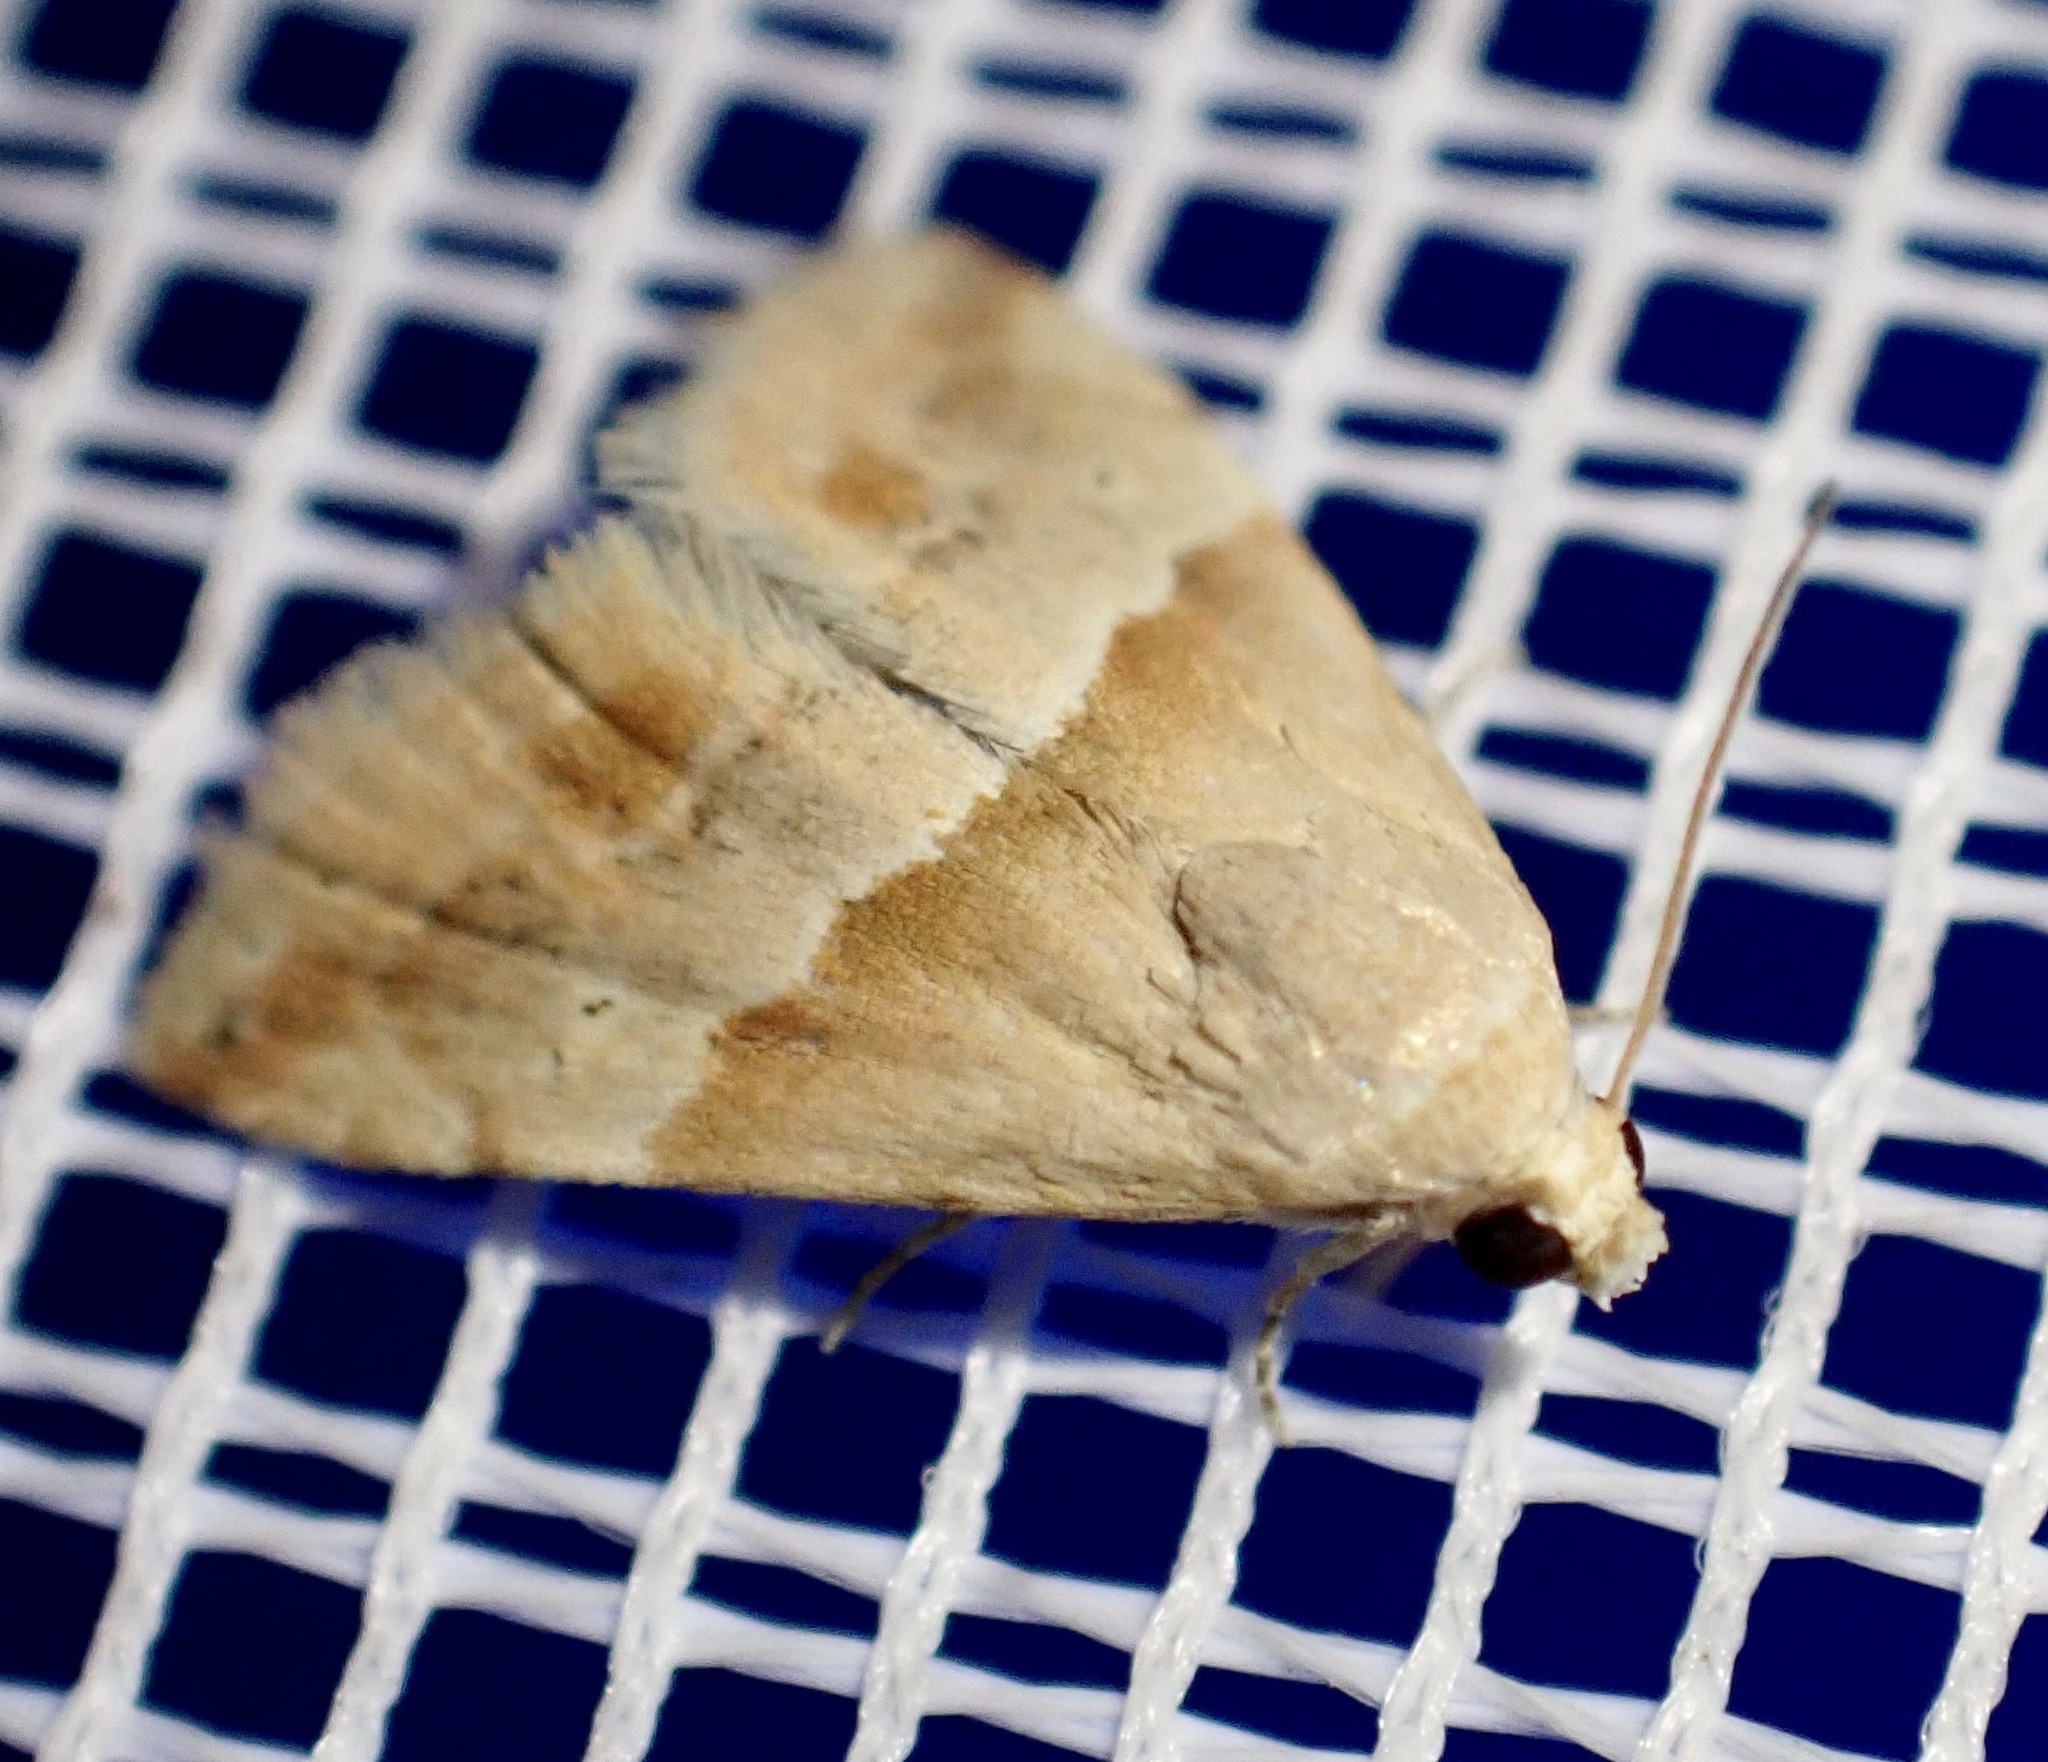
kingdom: Animalia
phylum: Arthropoda
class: Insecta
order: Lepidoptera
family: Noctuidae
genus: Eublemma
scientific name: Eublemma parva
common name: Small marbled
